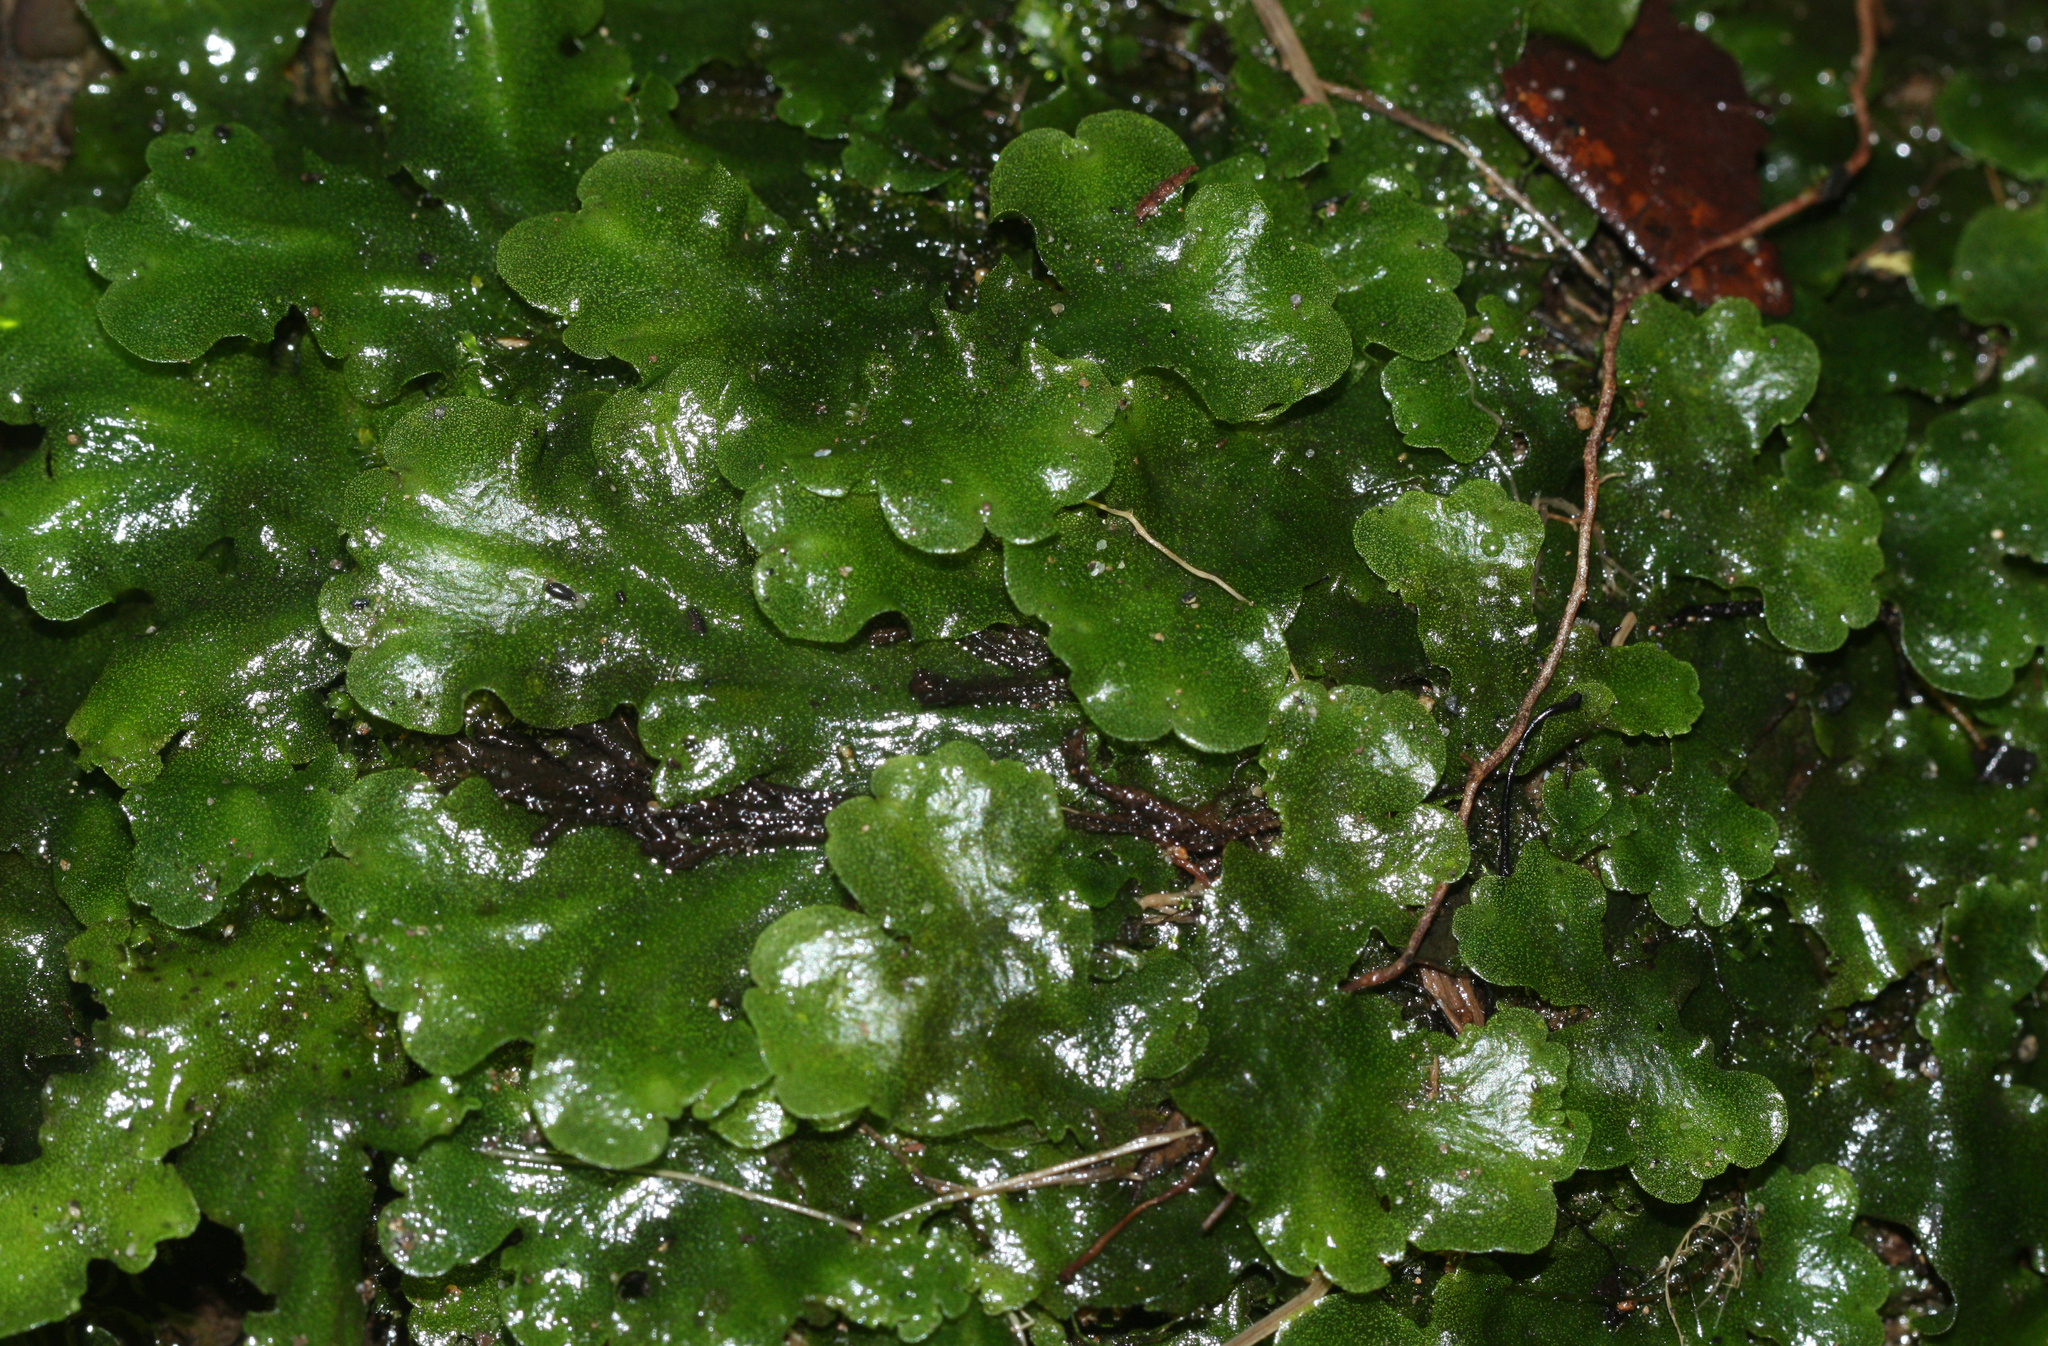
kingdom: Plantae
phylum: Marchantiophyta
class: Marchantiopsida
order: Marchantiales
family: Monocleaceae
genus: Monoclea
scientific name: Monoclea gottschei
